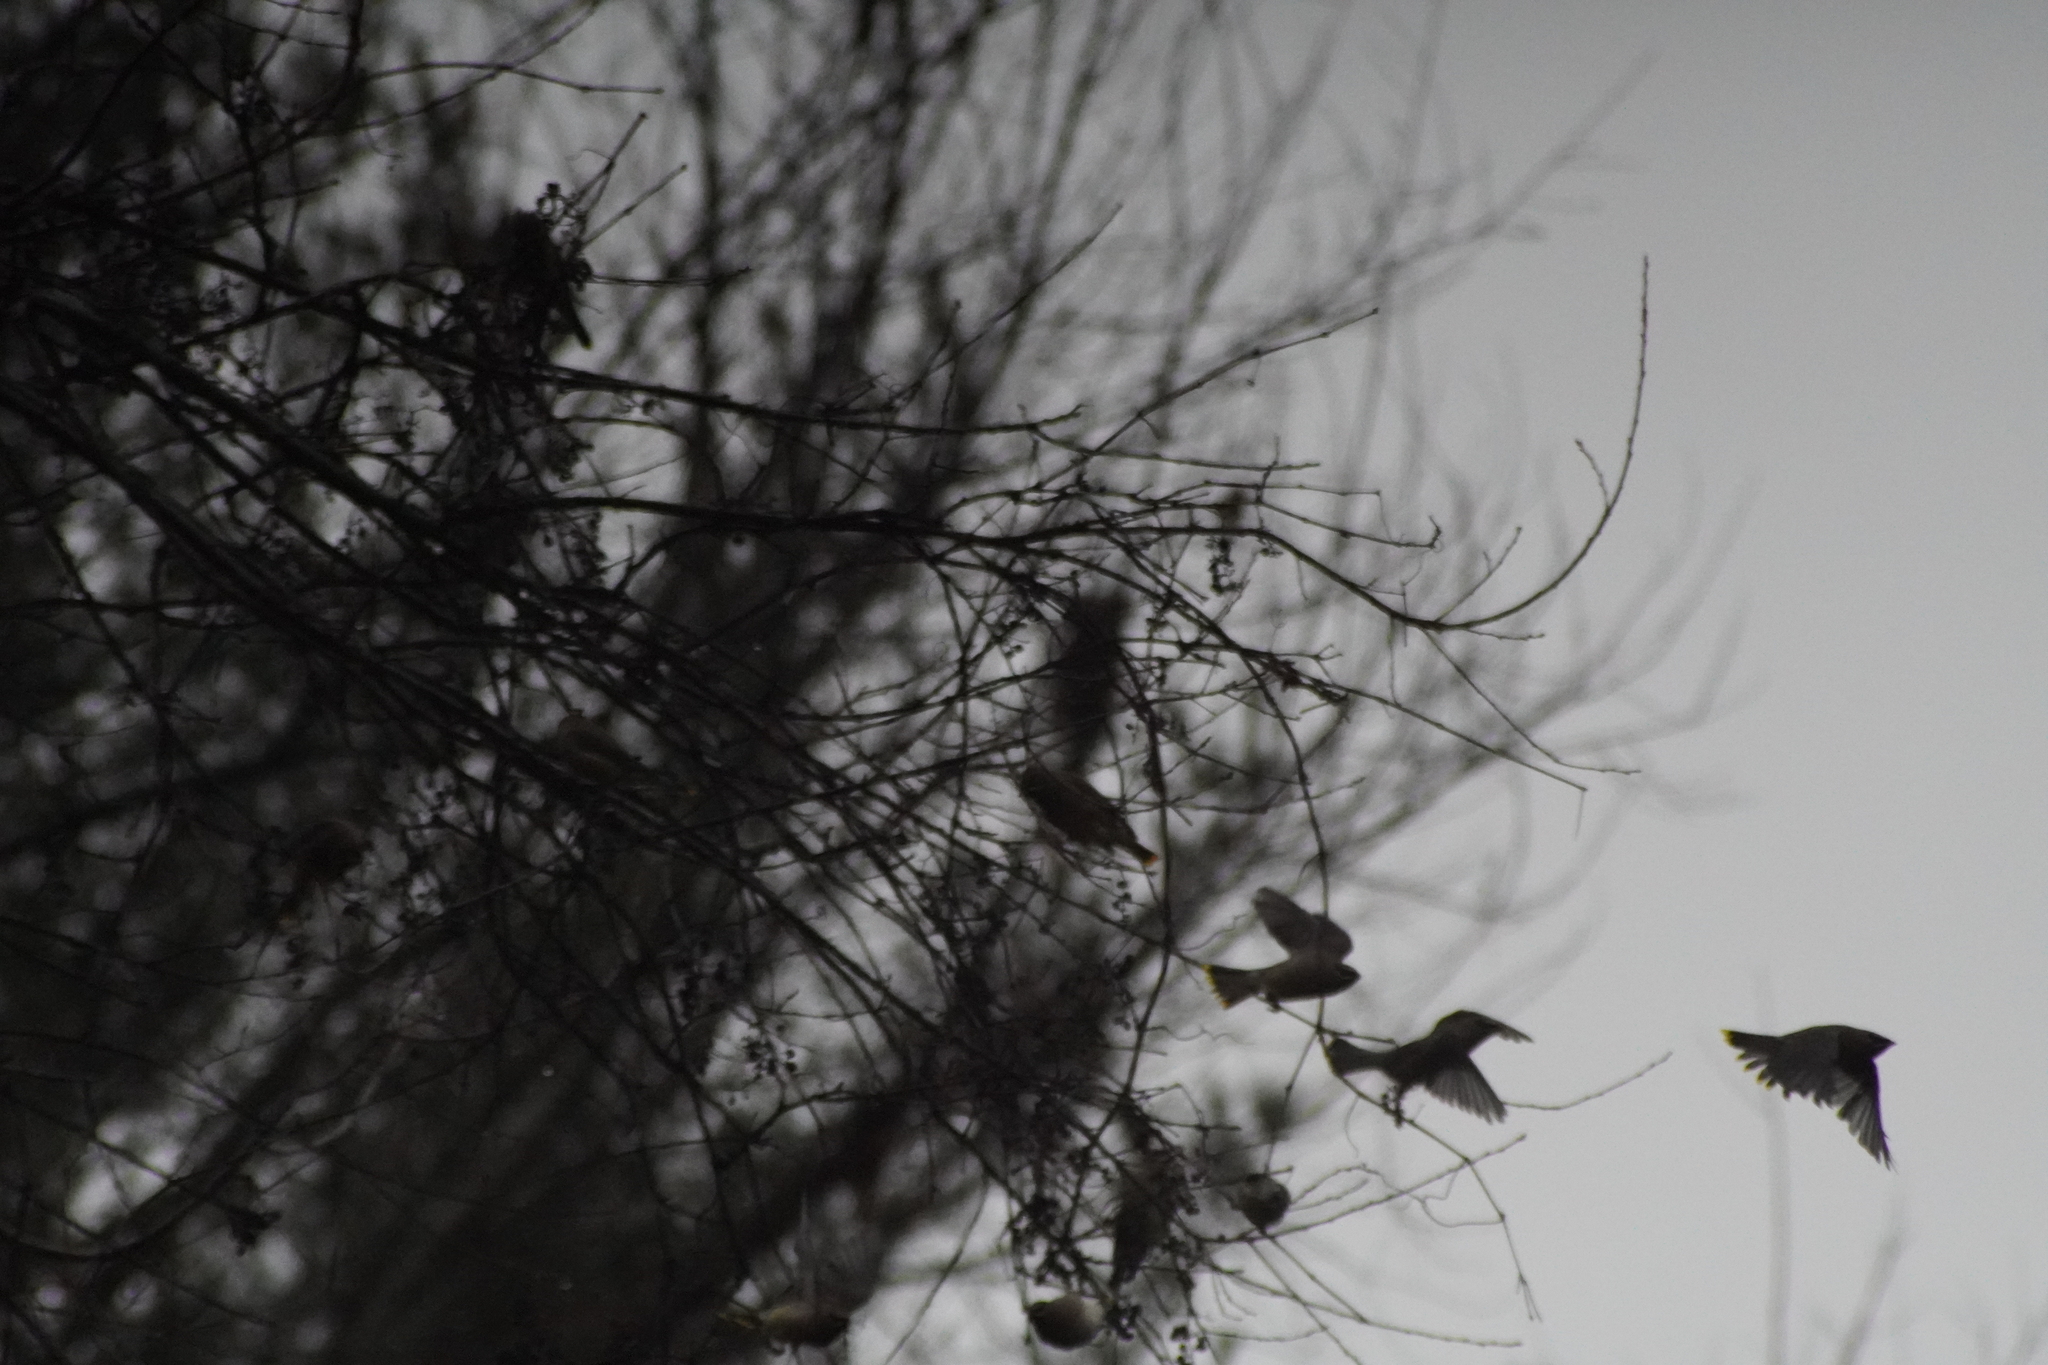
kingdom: Animalia
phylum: Chordata
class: Aves
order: Passeriformes
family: Bombycillidae
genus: Bombycilla
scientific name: Bombycilla cedrorum
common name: Cedar waxwing
